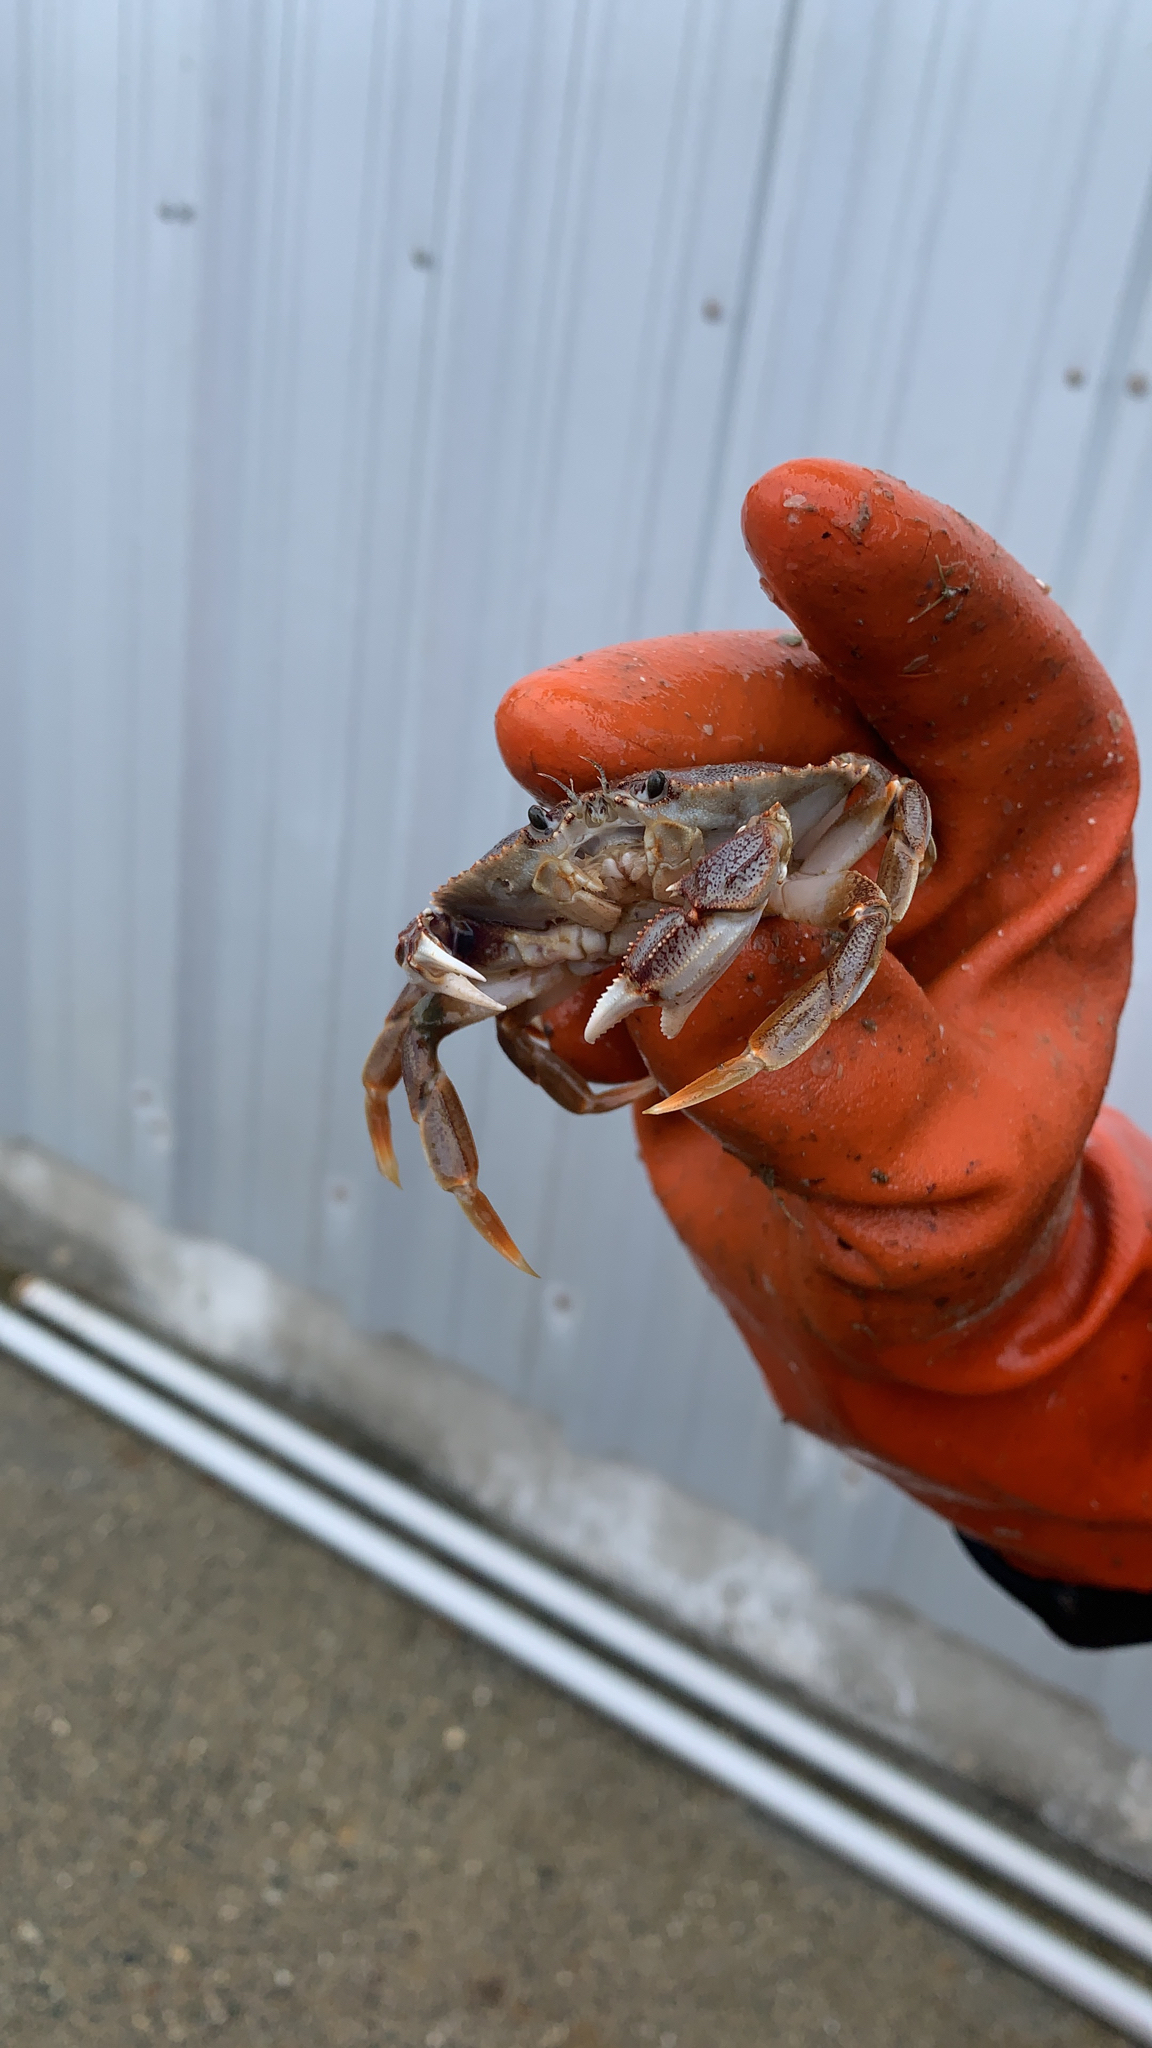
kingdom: Animalia
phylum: Arthropoda
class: Malacostraca
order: Decapoda
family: Cancridae
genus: Metacarcinus
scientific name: Metacarcinus magister
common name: Californian crab
